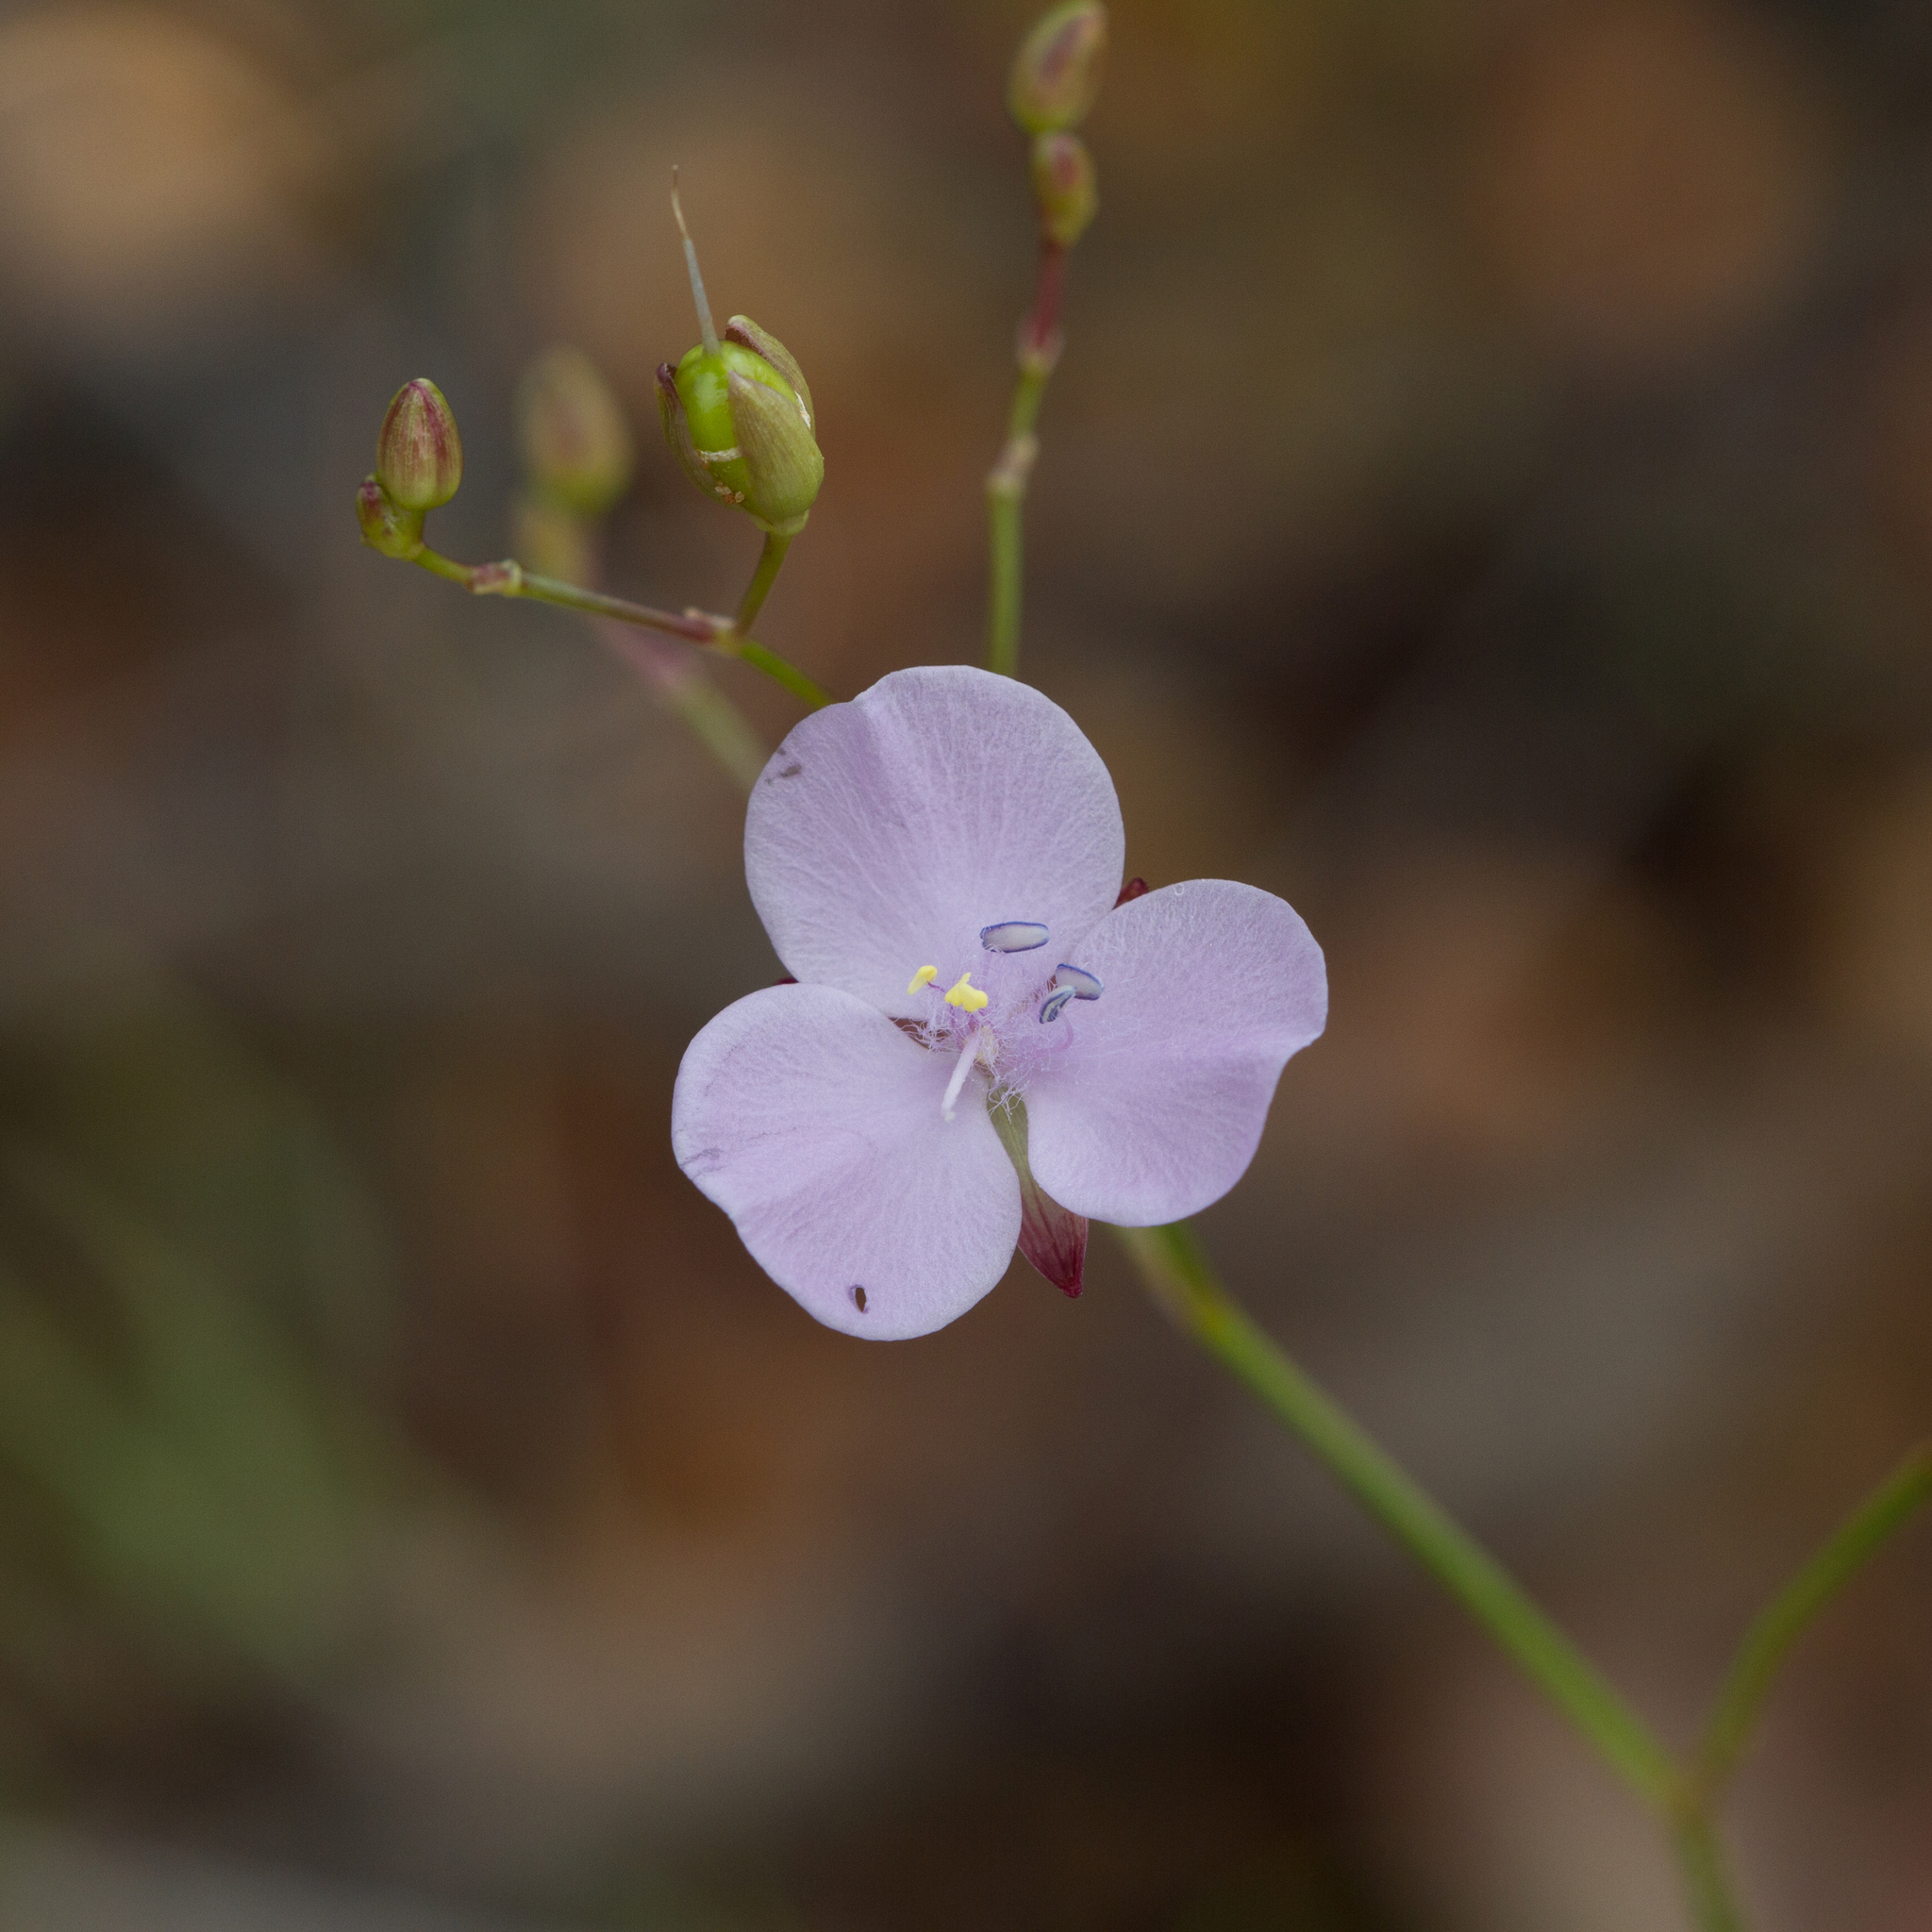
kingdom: Plantae
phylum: Tracheophyta
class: Liliopsida
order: Commelinales
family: Commelinaceae
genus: Murdannia
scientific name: Murdannia graminea
